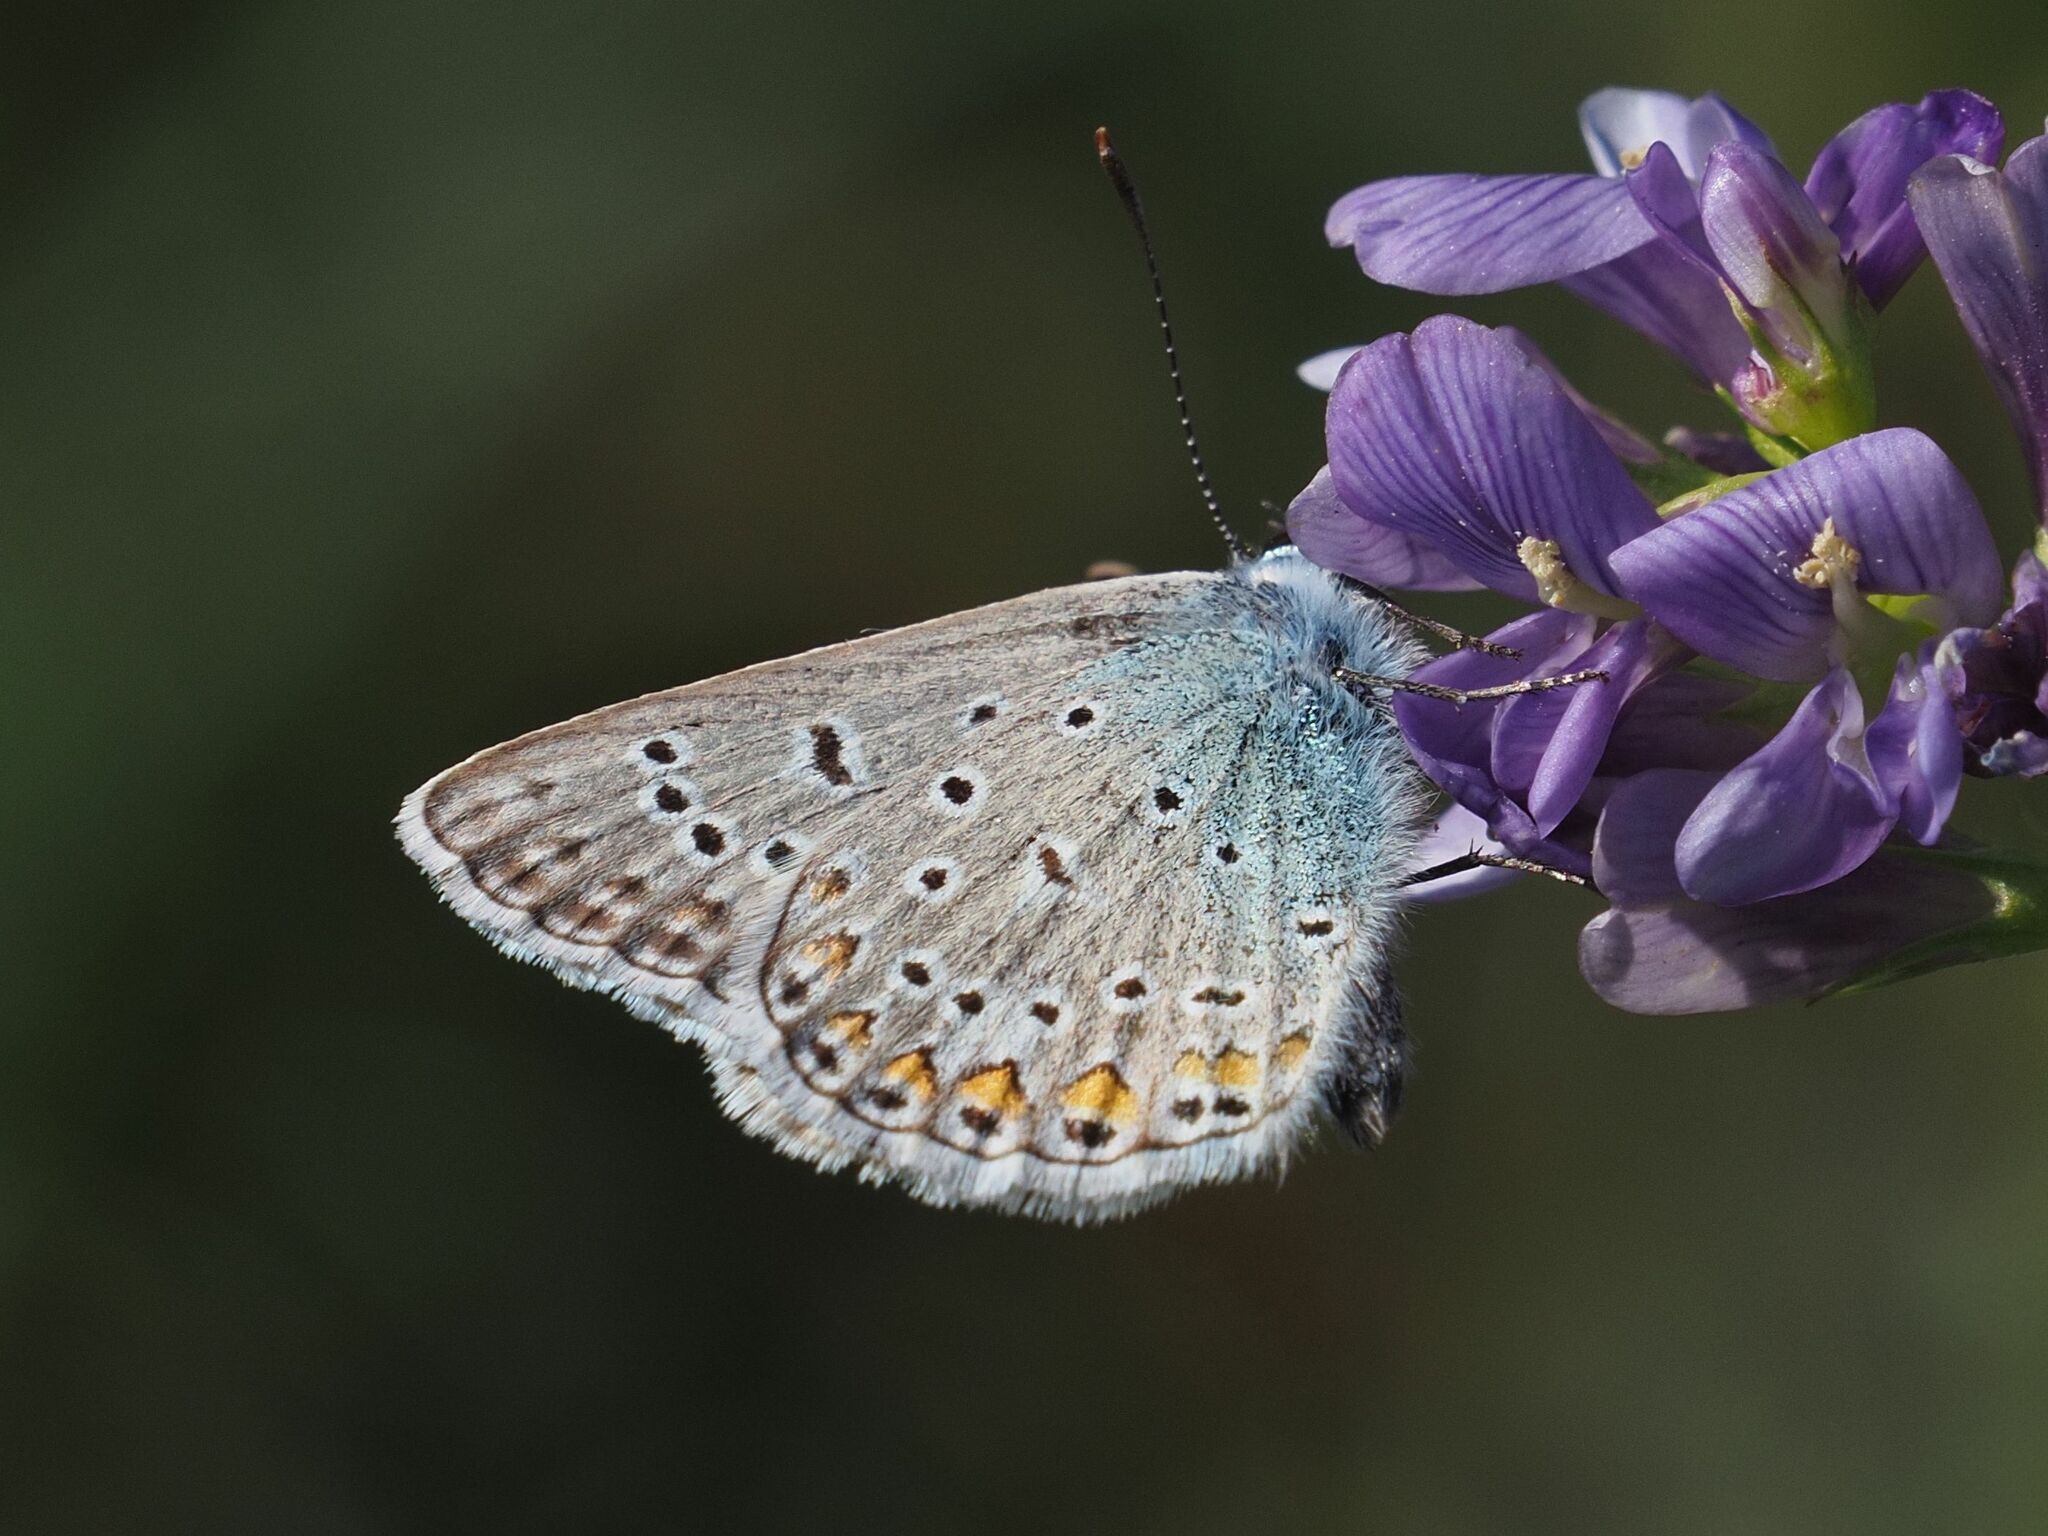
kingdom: Animalia
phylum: Arthropoda
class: Insecta
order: Lepidoptera
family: Lycaenidae
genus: Polyommatus
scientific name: Polyommatus icarus
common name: Common blue
